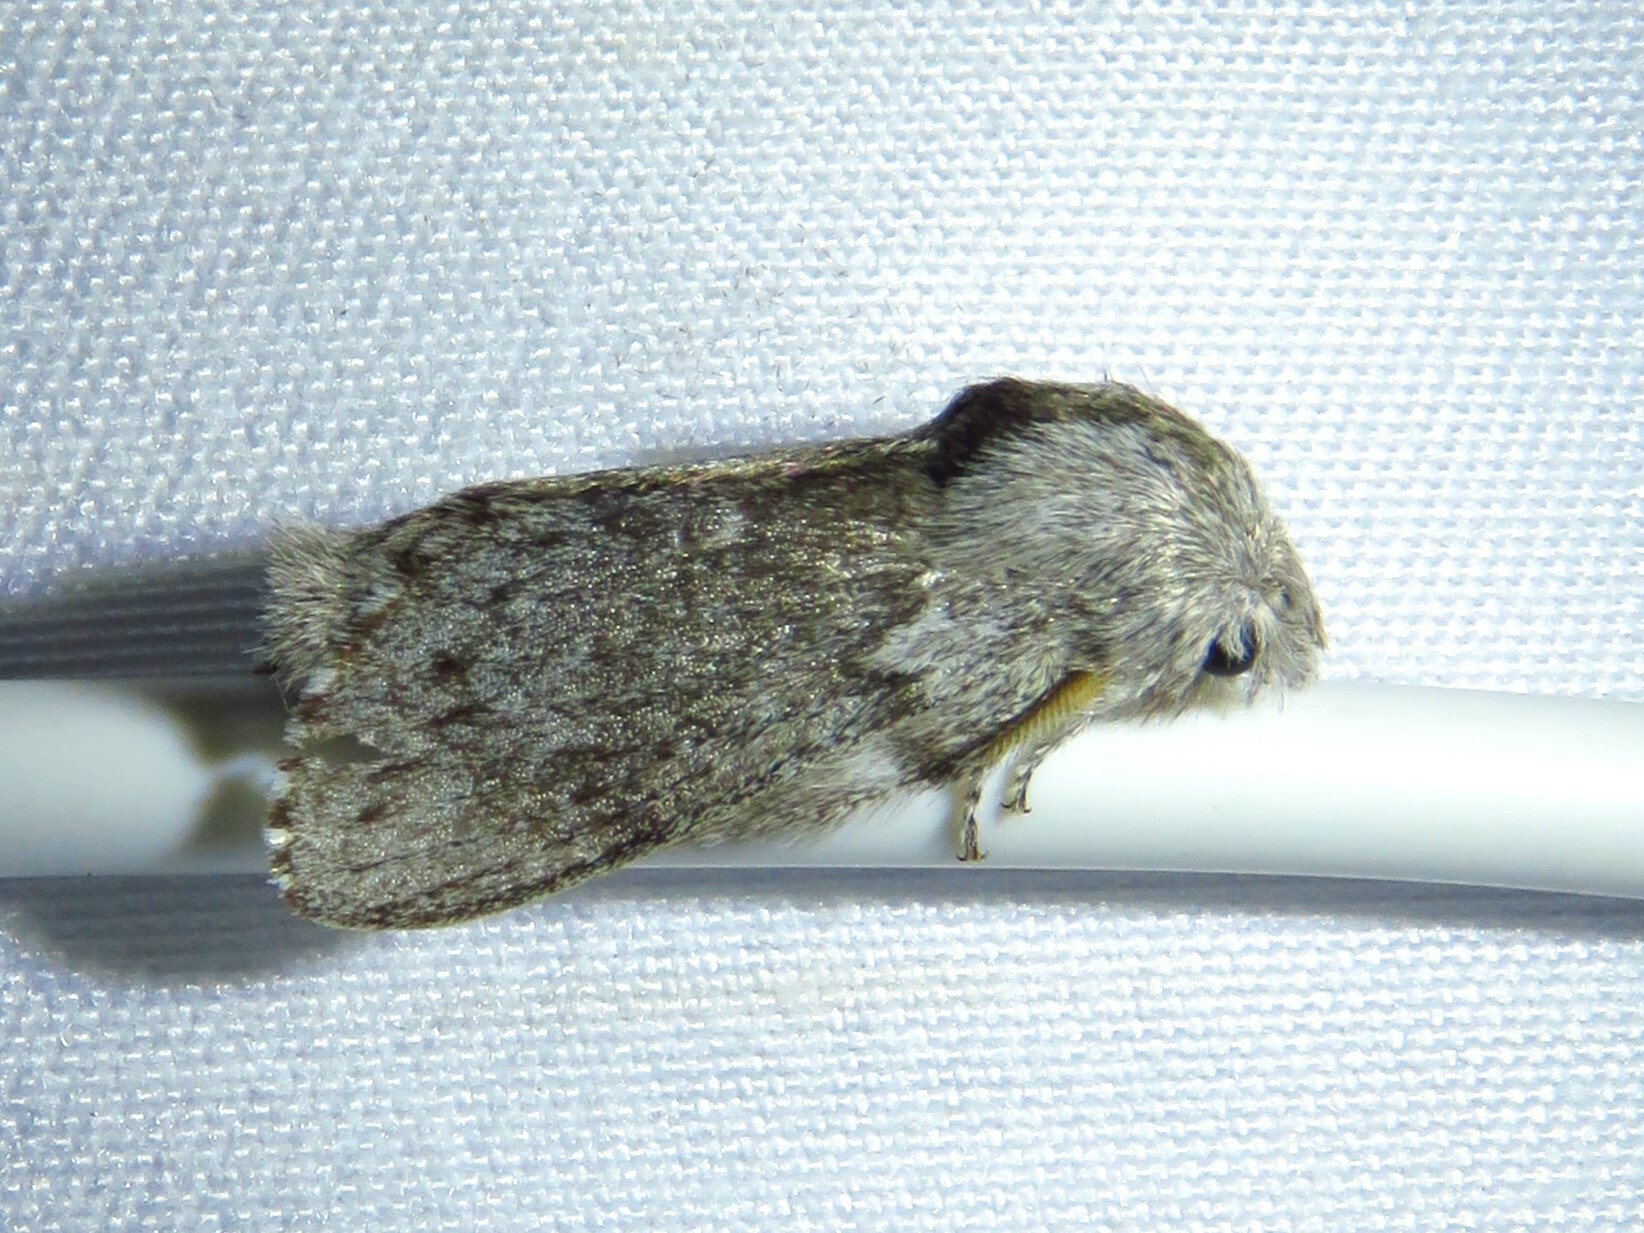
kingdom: Animalia
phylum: Arthropoda
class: Insecta
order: Lepidoptera
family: Lasiocampidae
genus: Heteropacha
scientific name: Heteropacha rileyana
